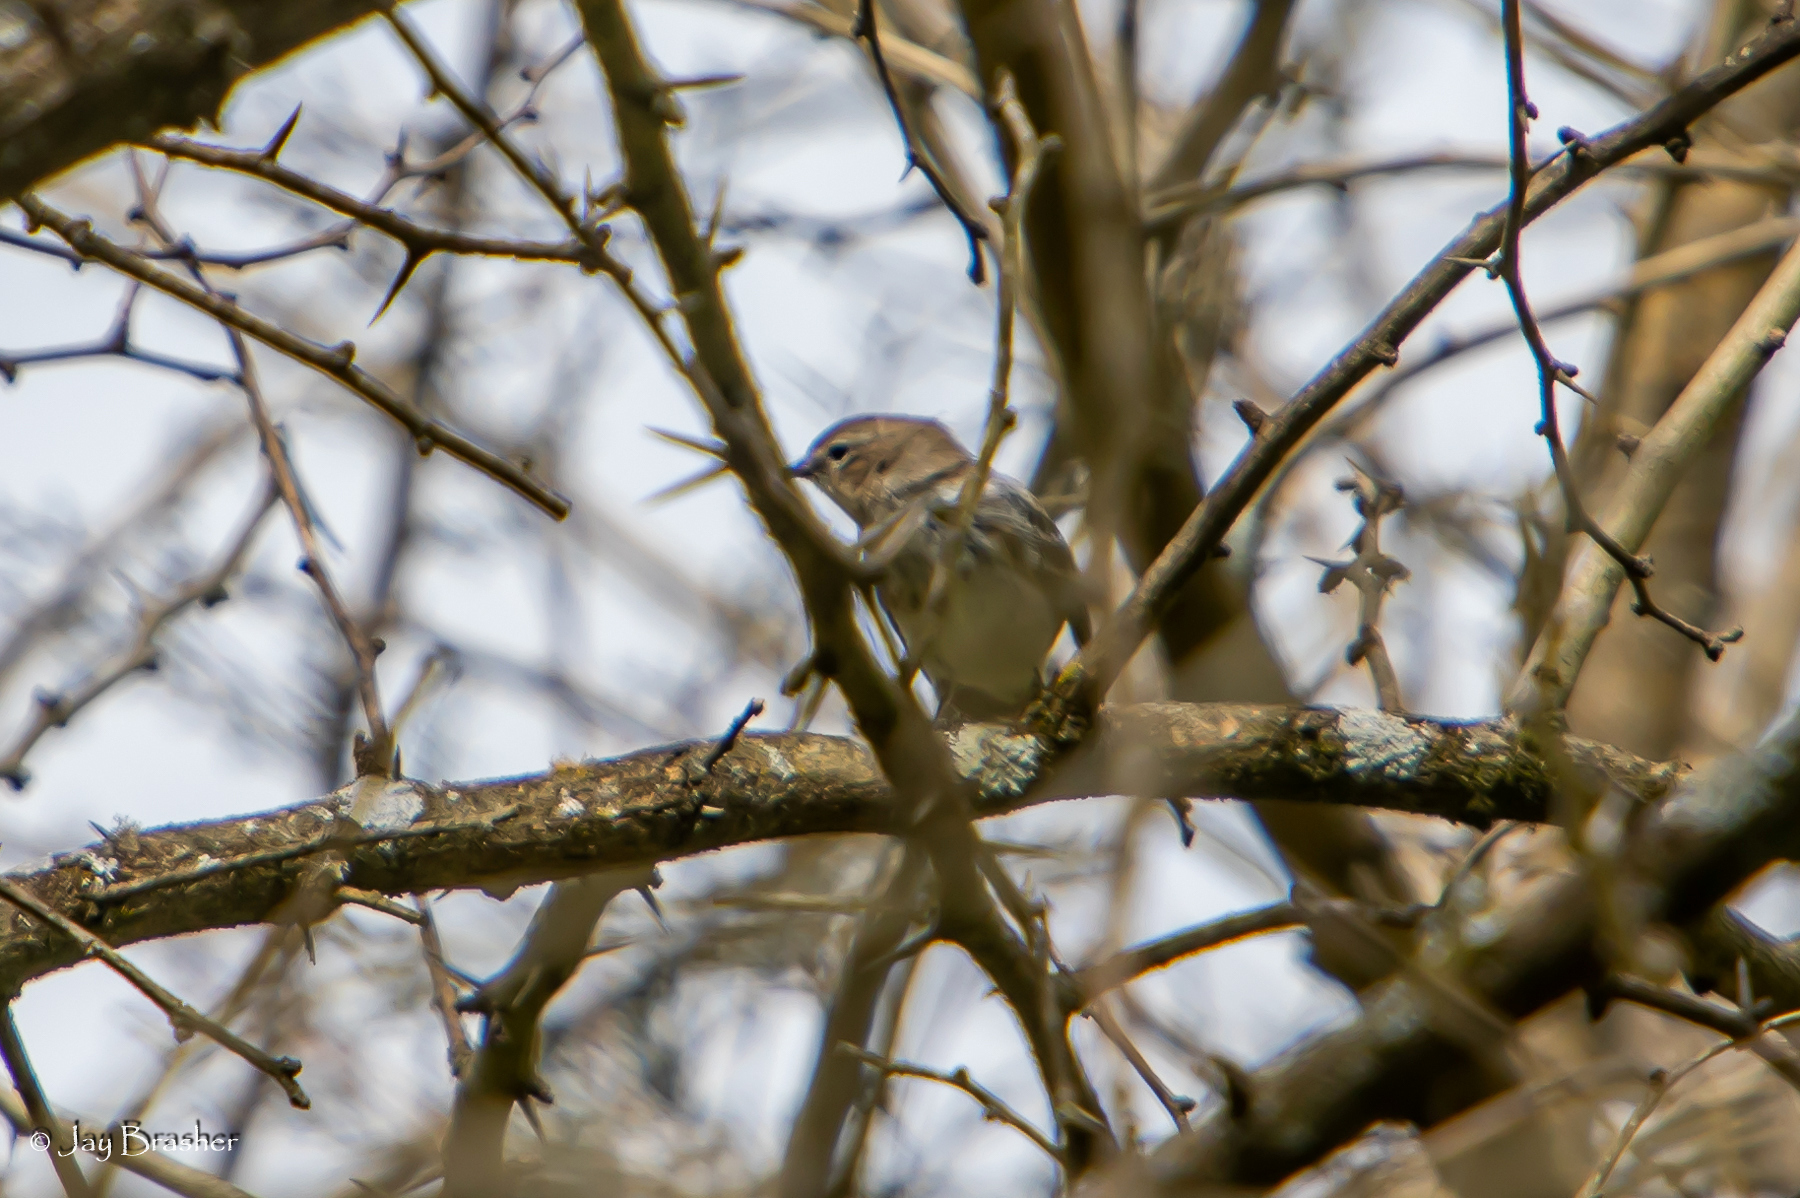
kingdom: Animalia
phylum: Chordata
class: Aves
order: Passeriformes
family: Parulidae
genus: Setophaga
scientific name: Setophaga coronata
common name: Myrtle warbler
